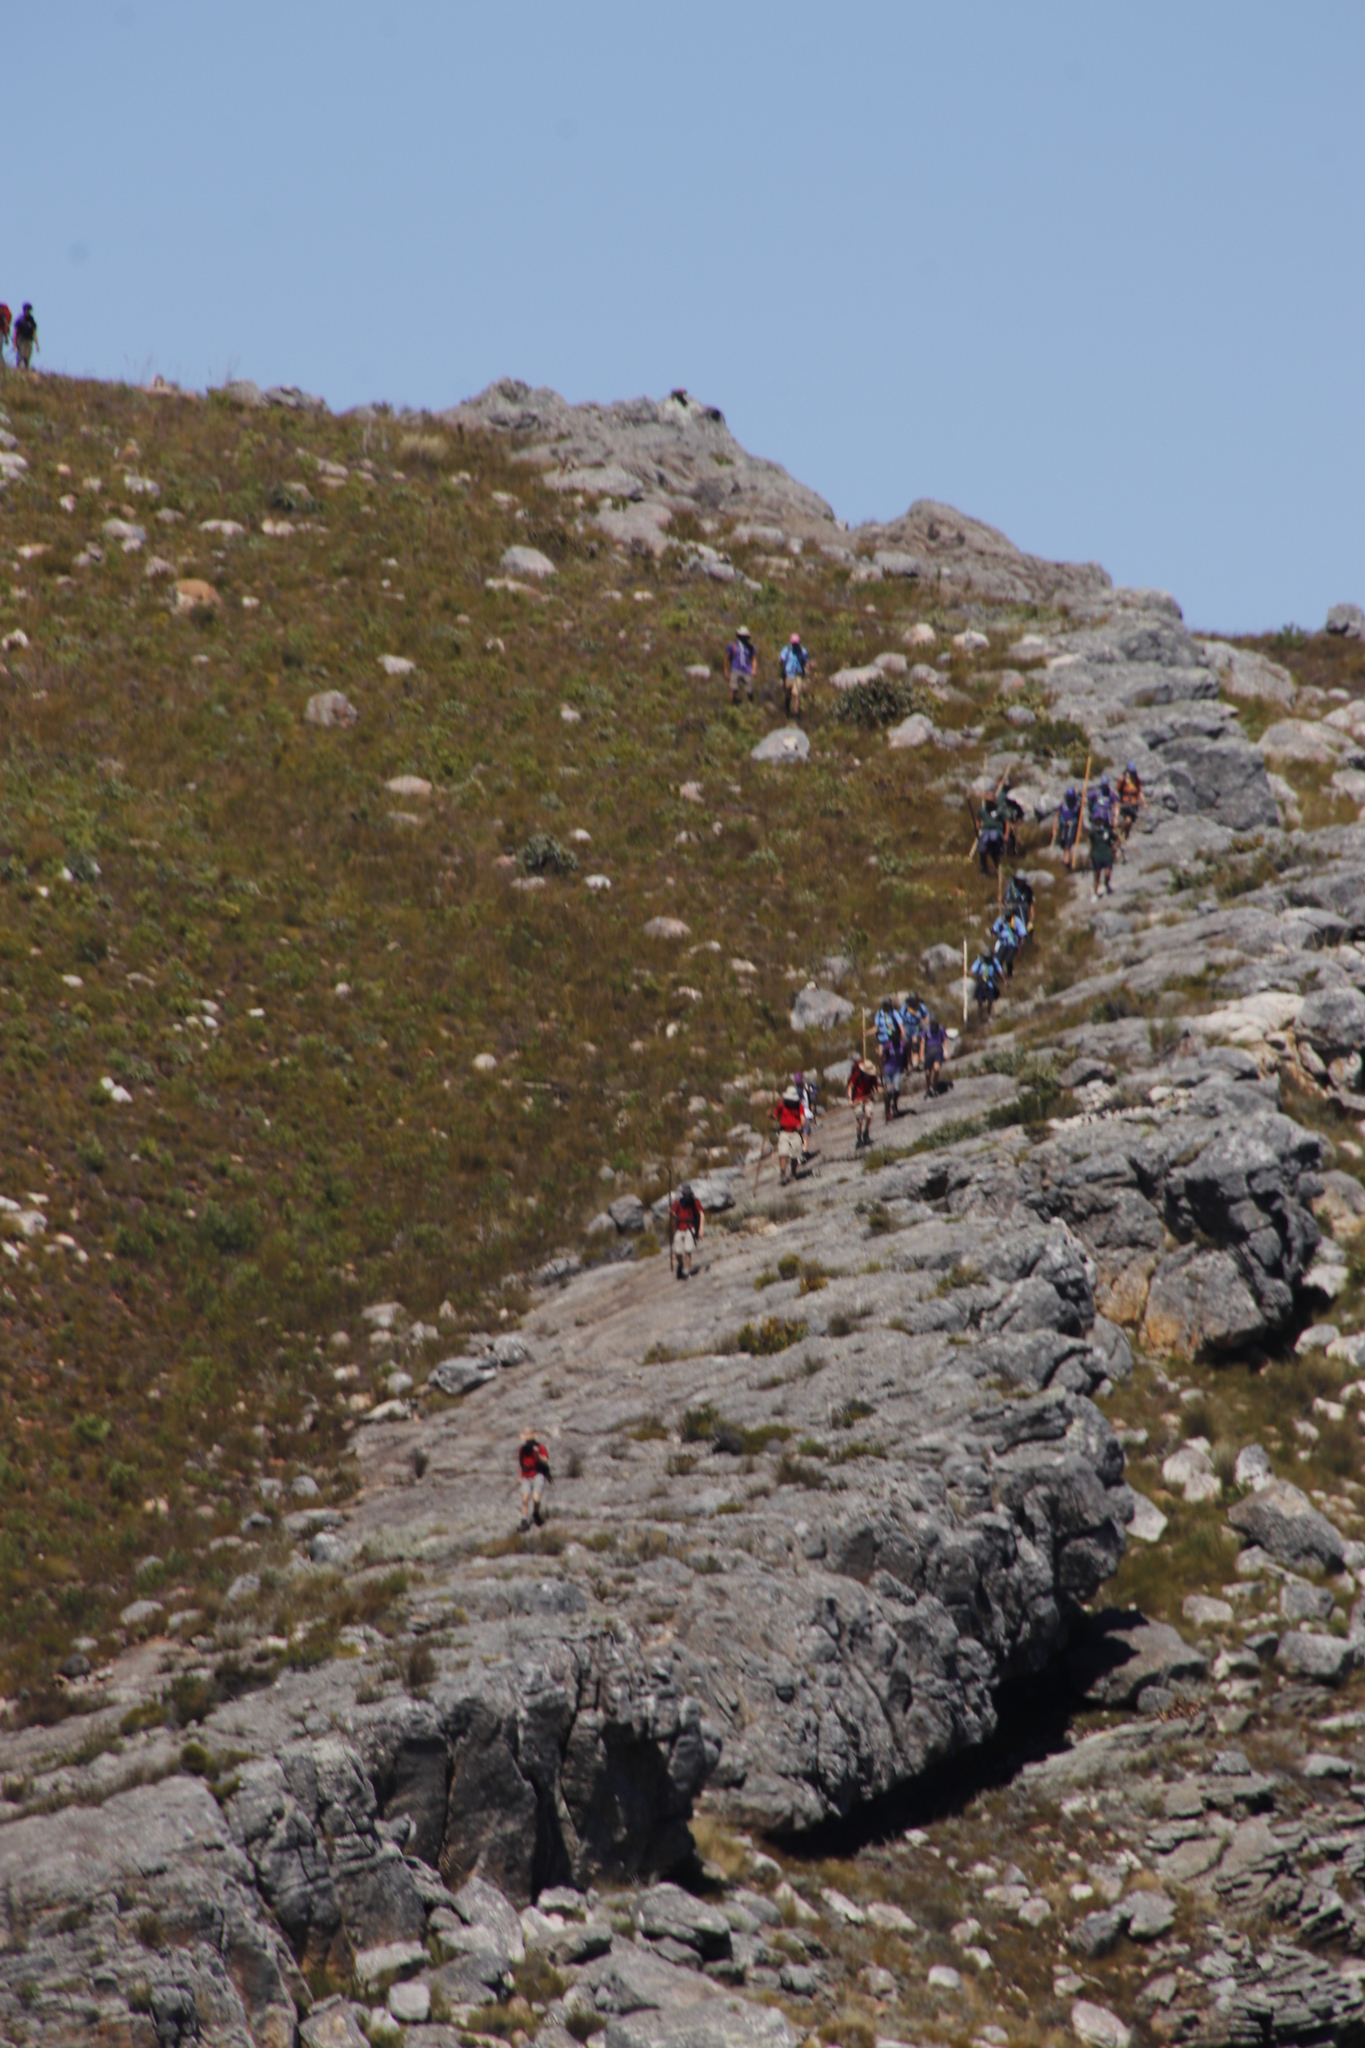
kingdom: Plantae
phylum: Tracheophyta
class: Magnoliopsida
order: Proteales
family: Proteaceae
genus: Protea
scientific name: Protea magnifica
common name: Bearded sugarbush
